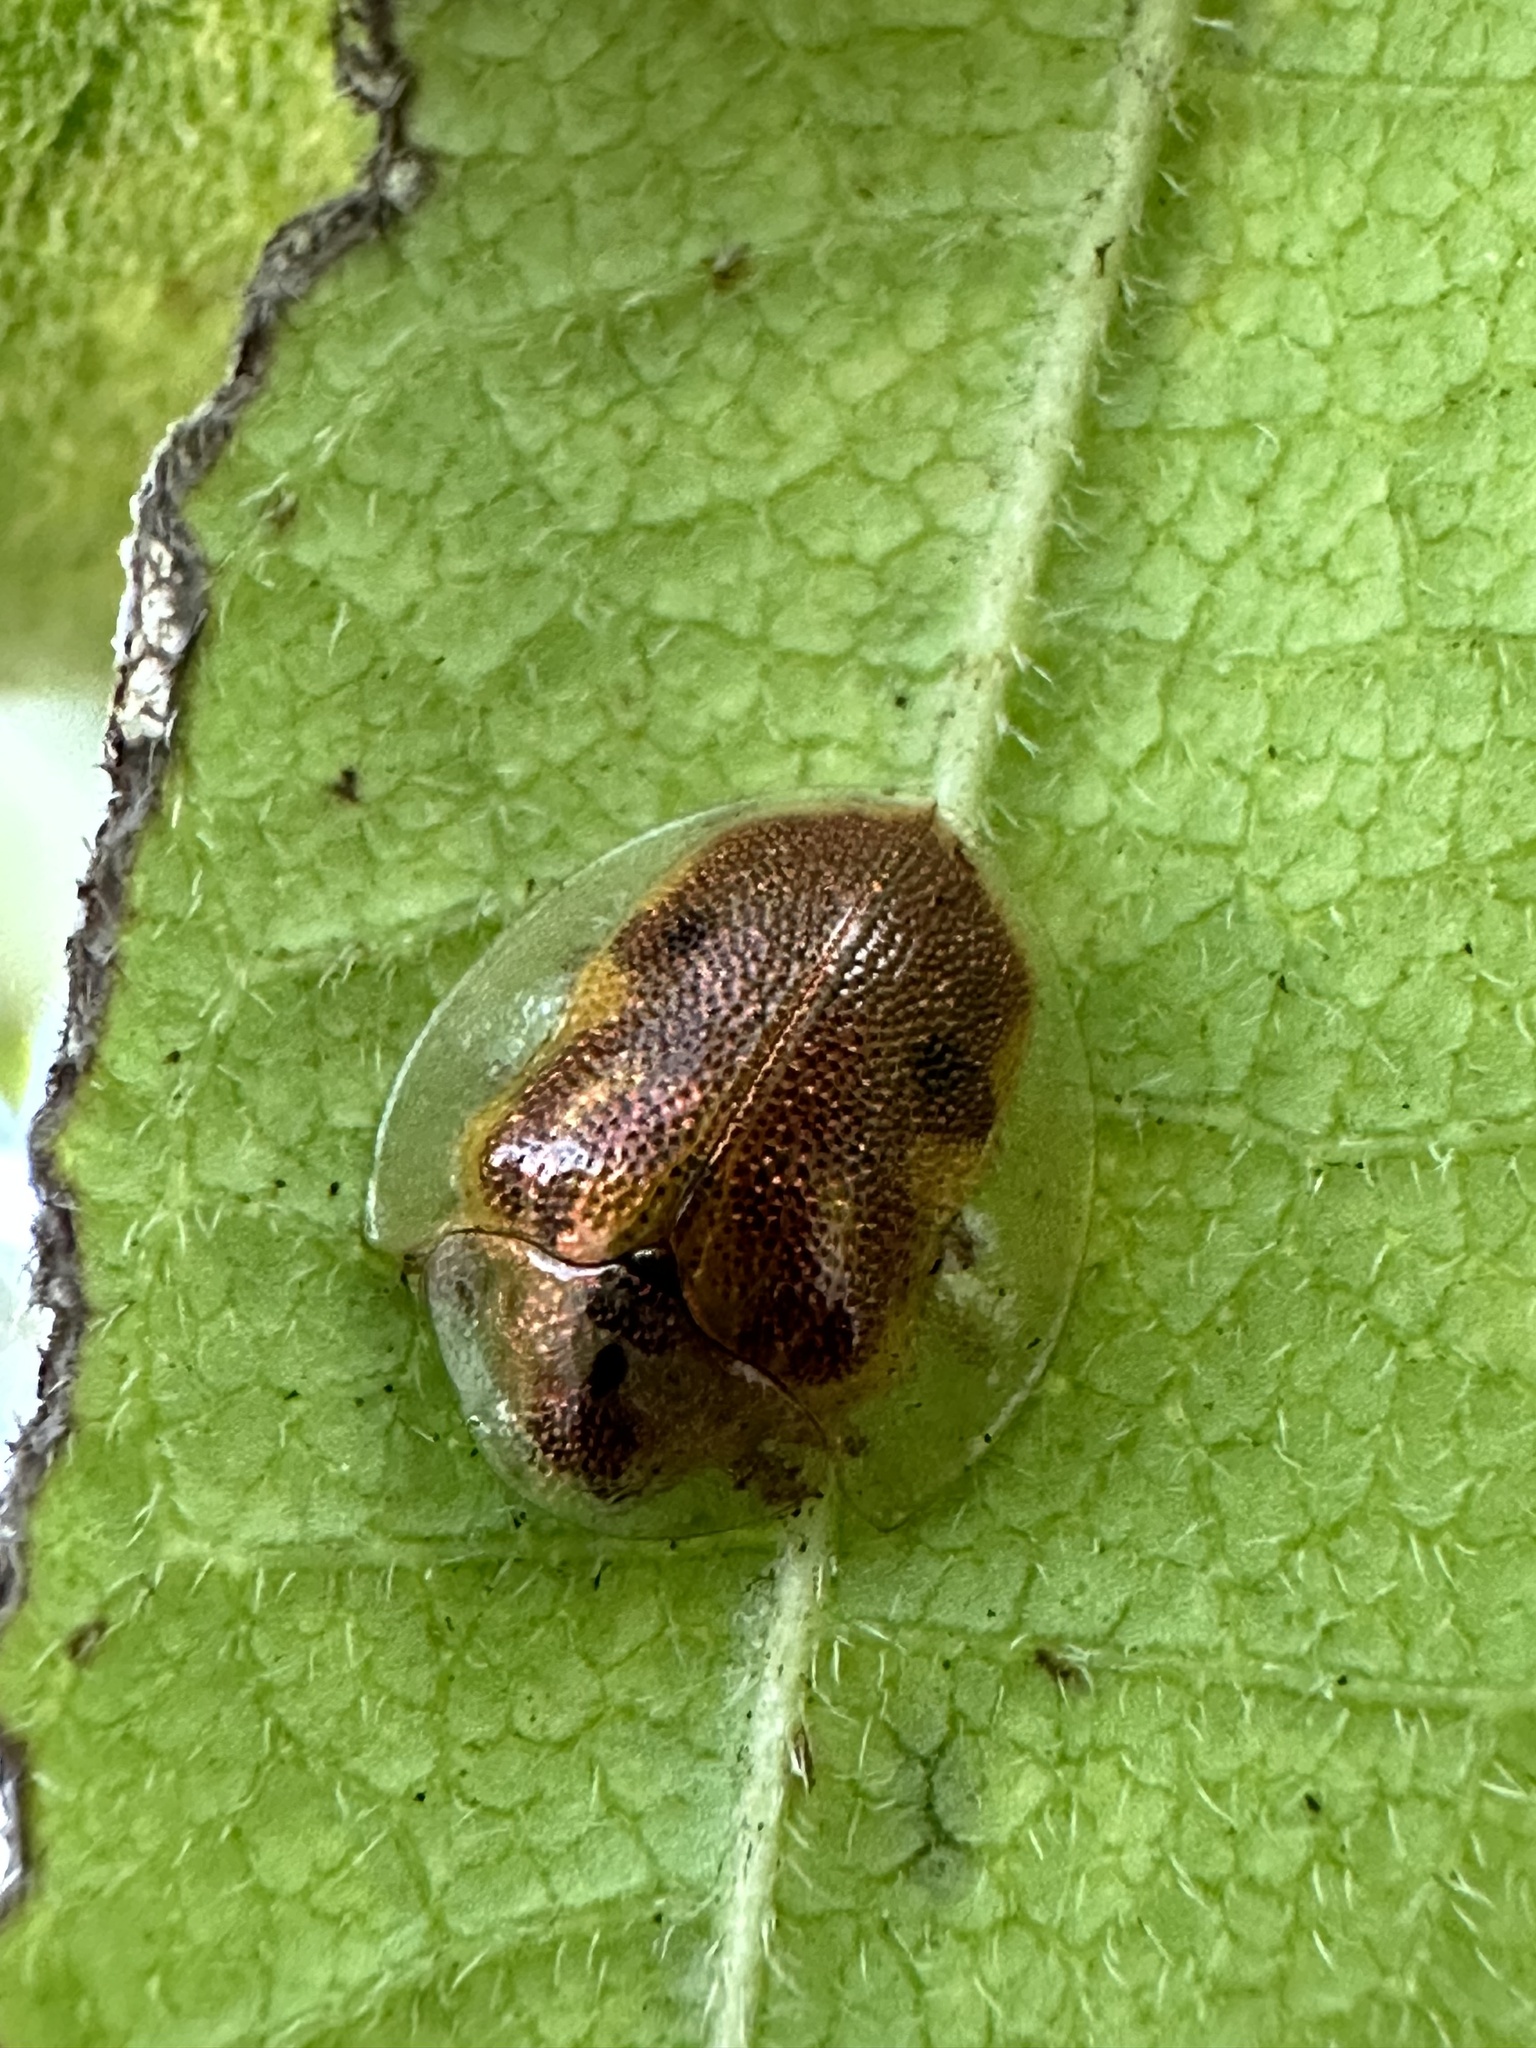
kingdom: Animalia
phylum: Arthropoda
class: Insecta
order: Coleoptera
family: Chrysomelidae
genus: Eurypepla
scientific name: Eurypepla calochroma
